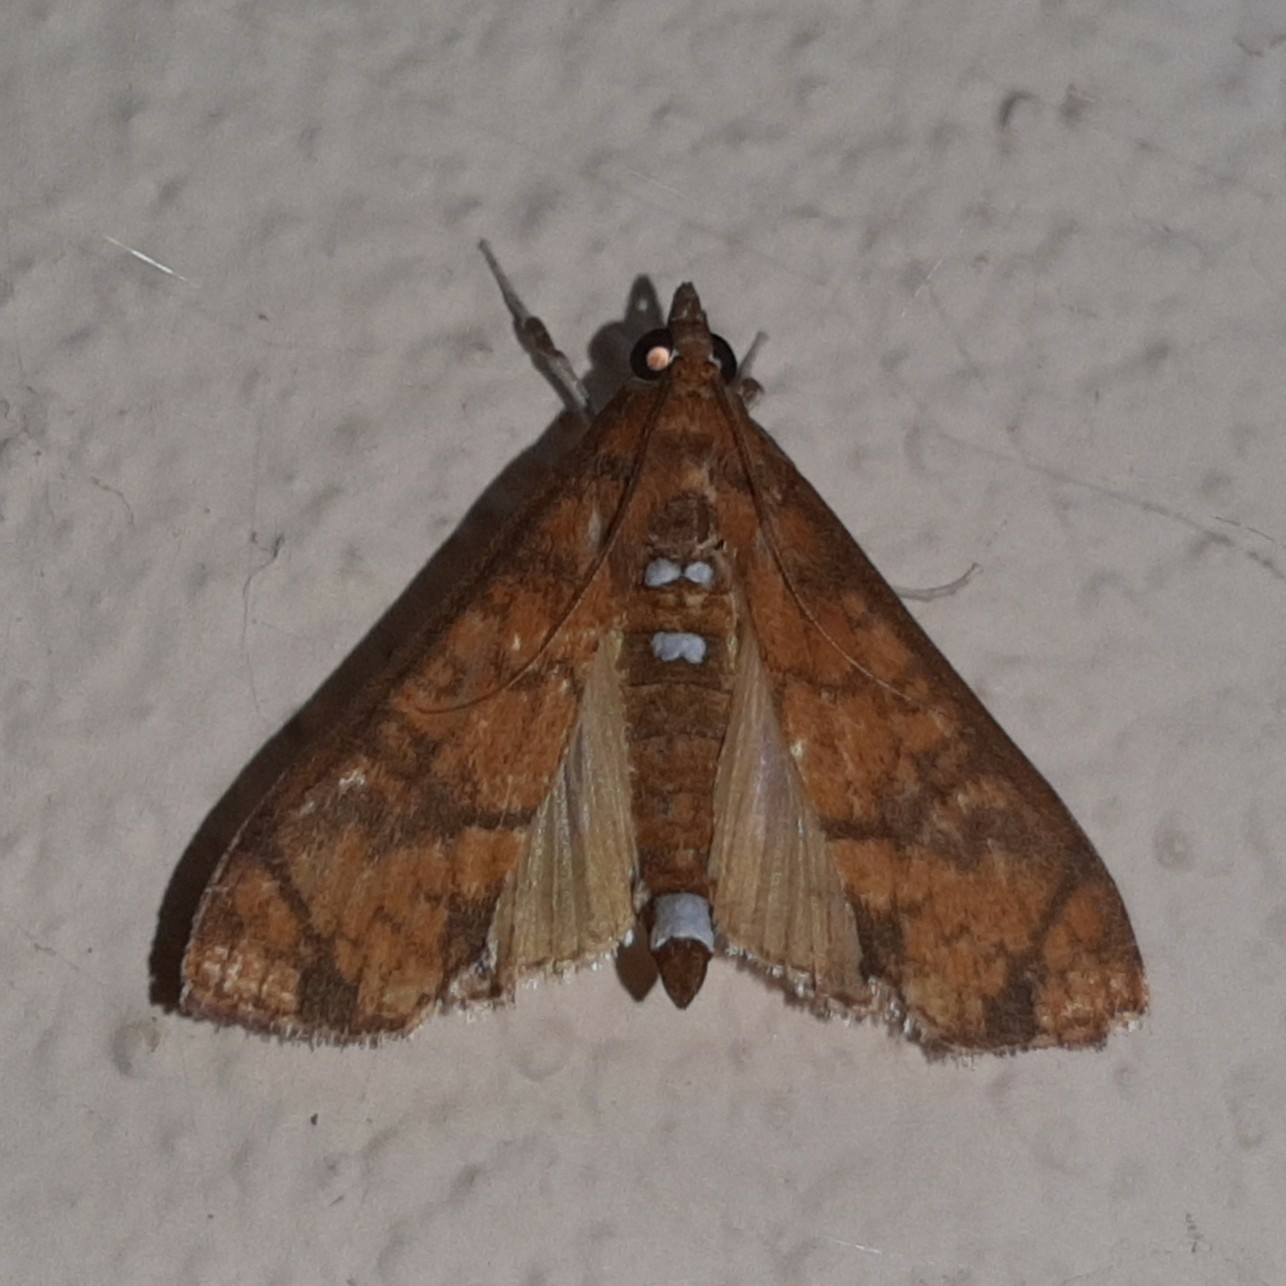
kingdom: Animalia
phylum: Arthropoda
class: Insecta
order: Lepidoptera
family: Crambidae
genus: Liopasia
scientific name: Liopasia ochracealis
